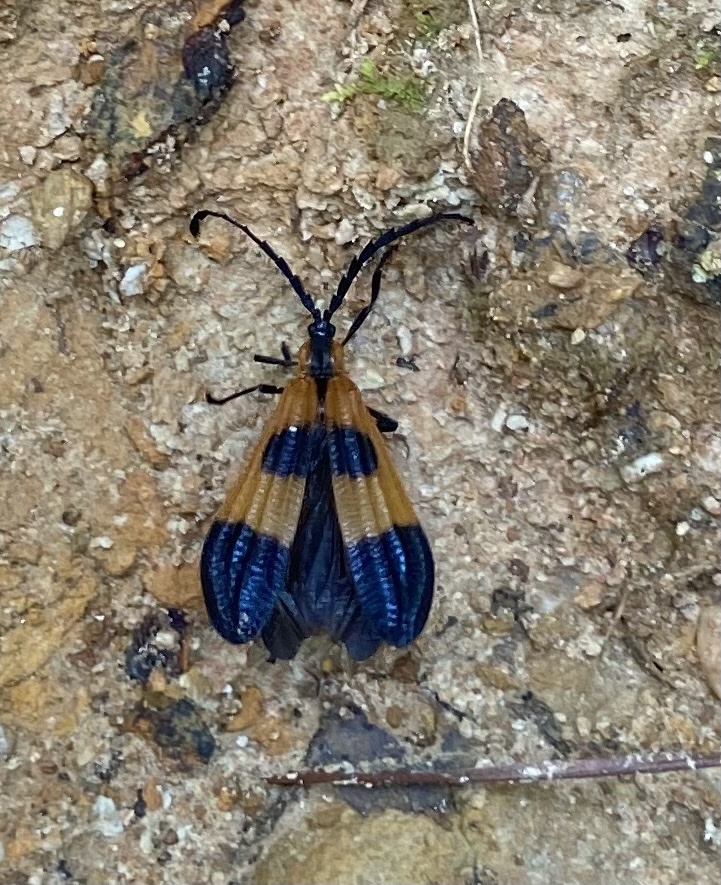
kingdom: Animalia
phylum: Arthropoda
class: Insecta
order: Coleoptera
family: Lycidae
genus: Calopteron
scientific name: Calopteron terminale
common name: End band net-winged beetle
